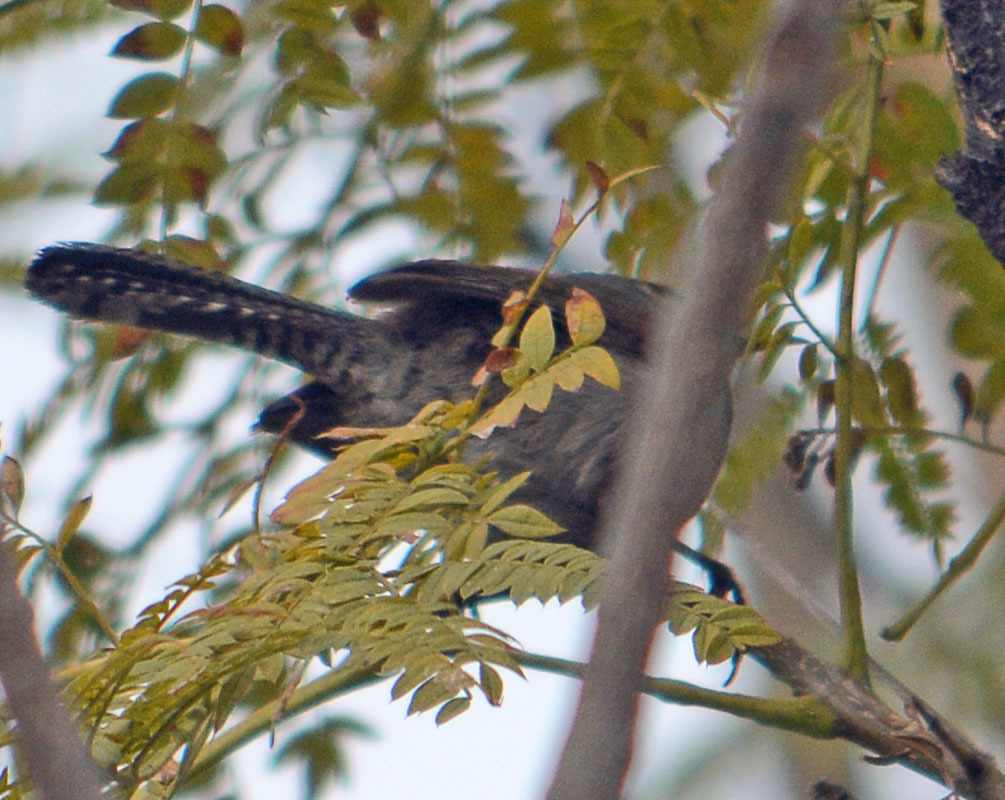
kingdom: Animalia
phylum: Chordata
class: Aves
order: Passeriformes
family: Troglodytidae
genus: Thryomanes
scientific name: Thryomanes bewickii
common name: Bewick's wren
